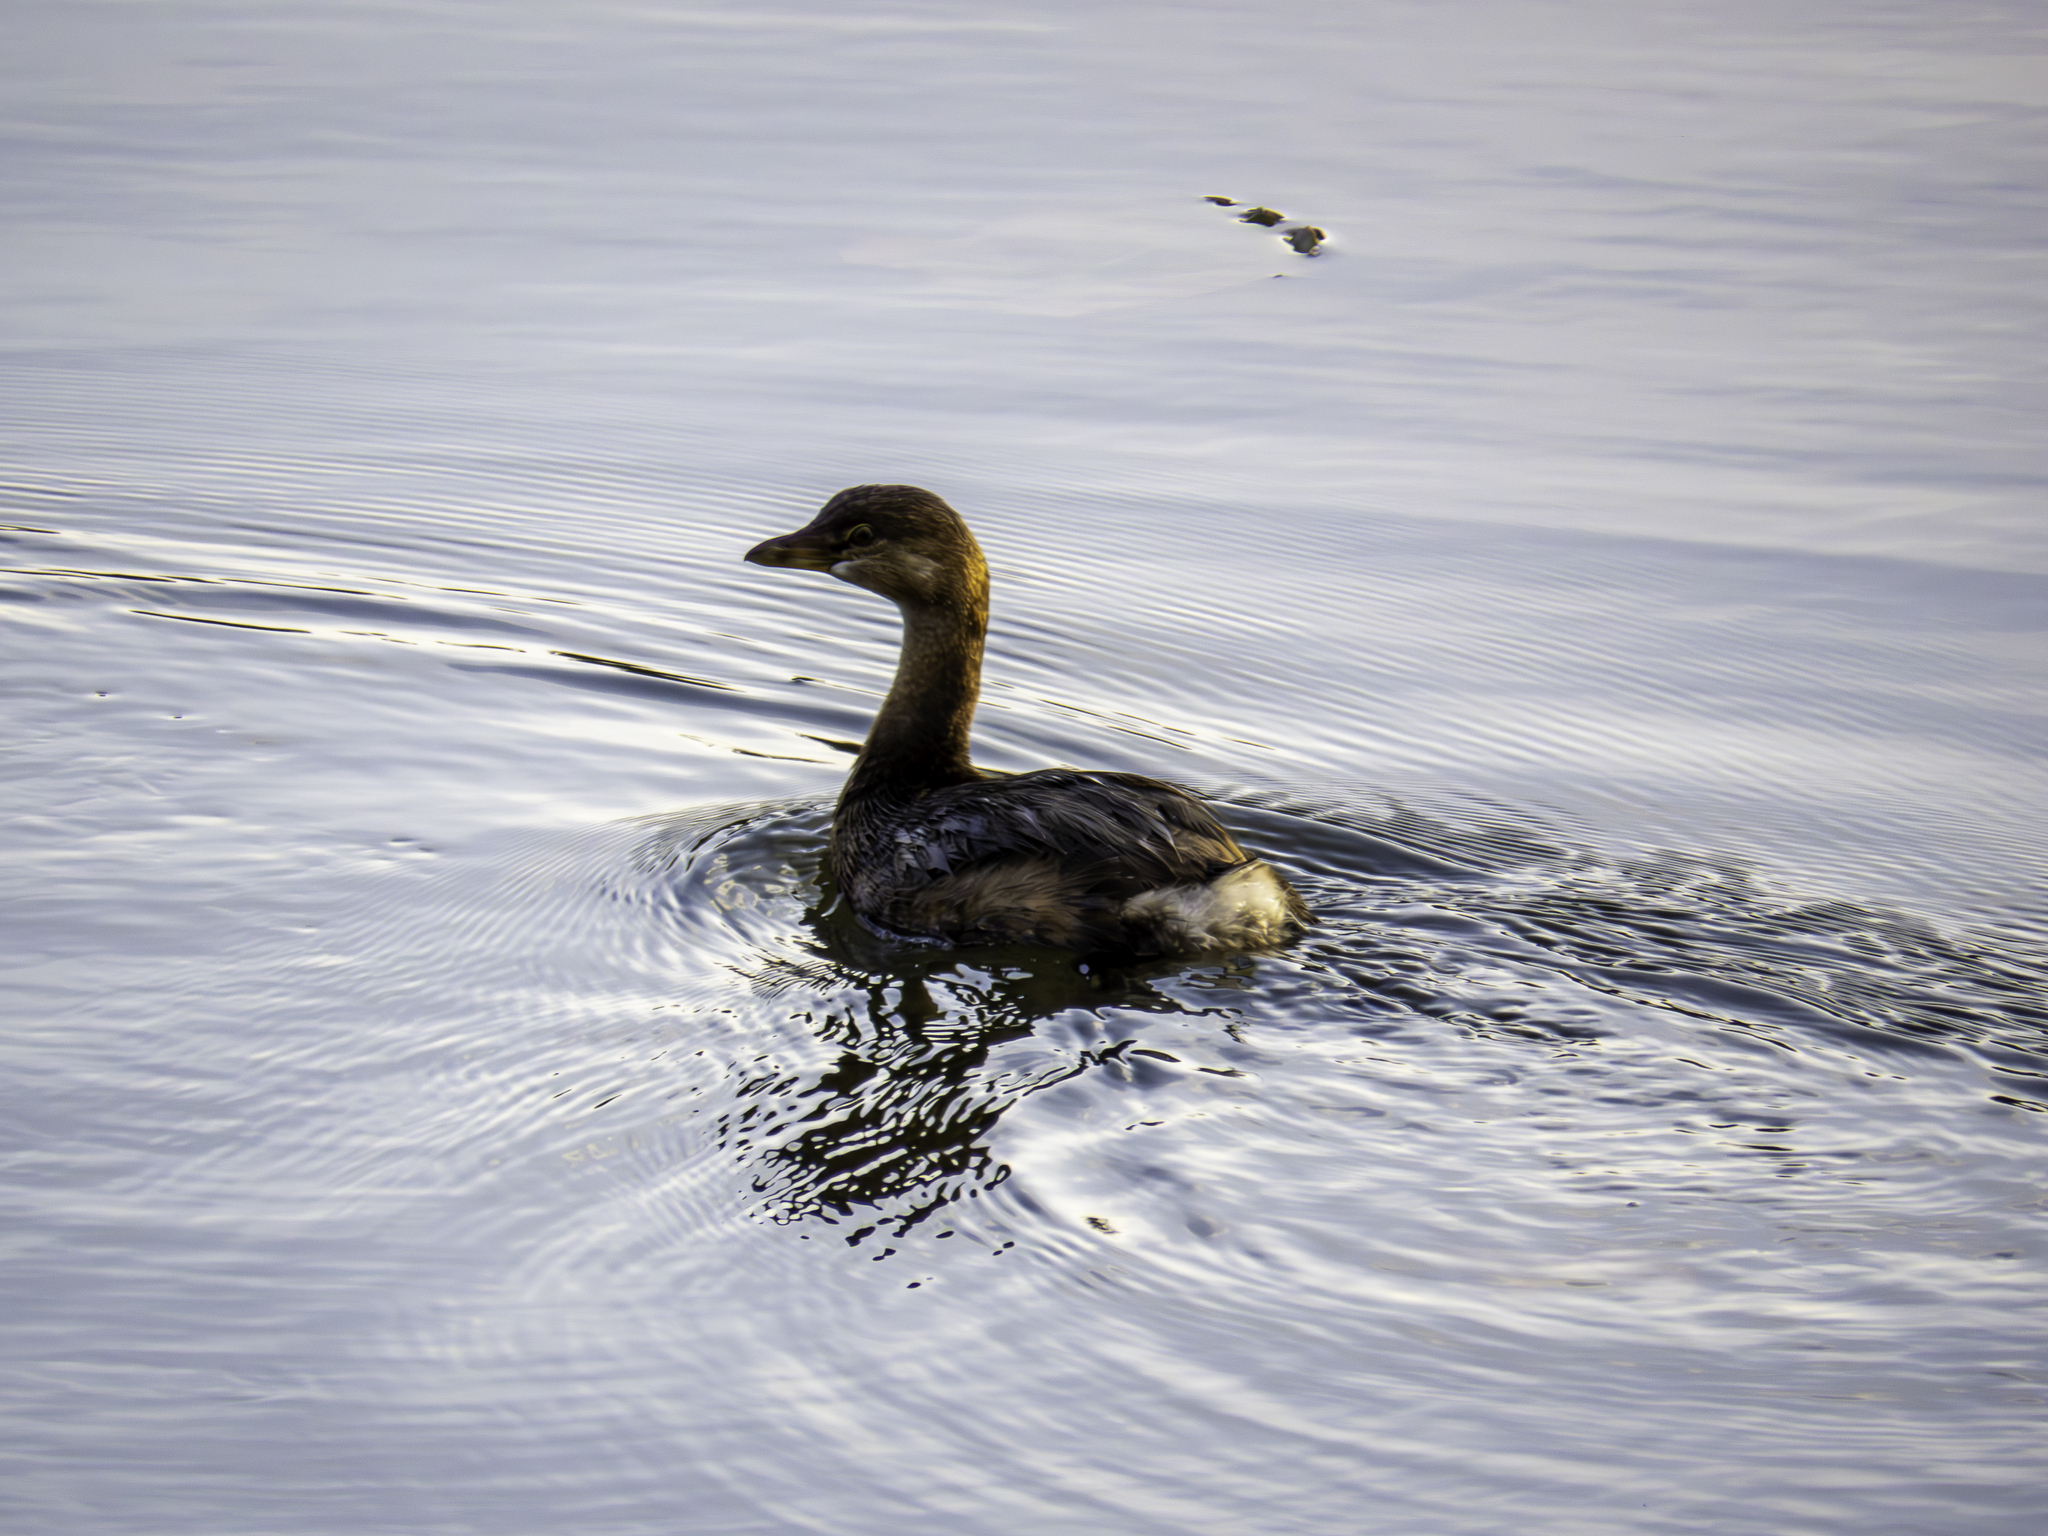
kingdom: Animalia
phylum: Chordata
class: Aves
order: Podicipediformes
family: Podicipedidae
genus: Podilymbus
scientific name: Podilymbus podiceps
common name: Pied-billed grebe
